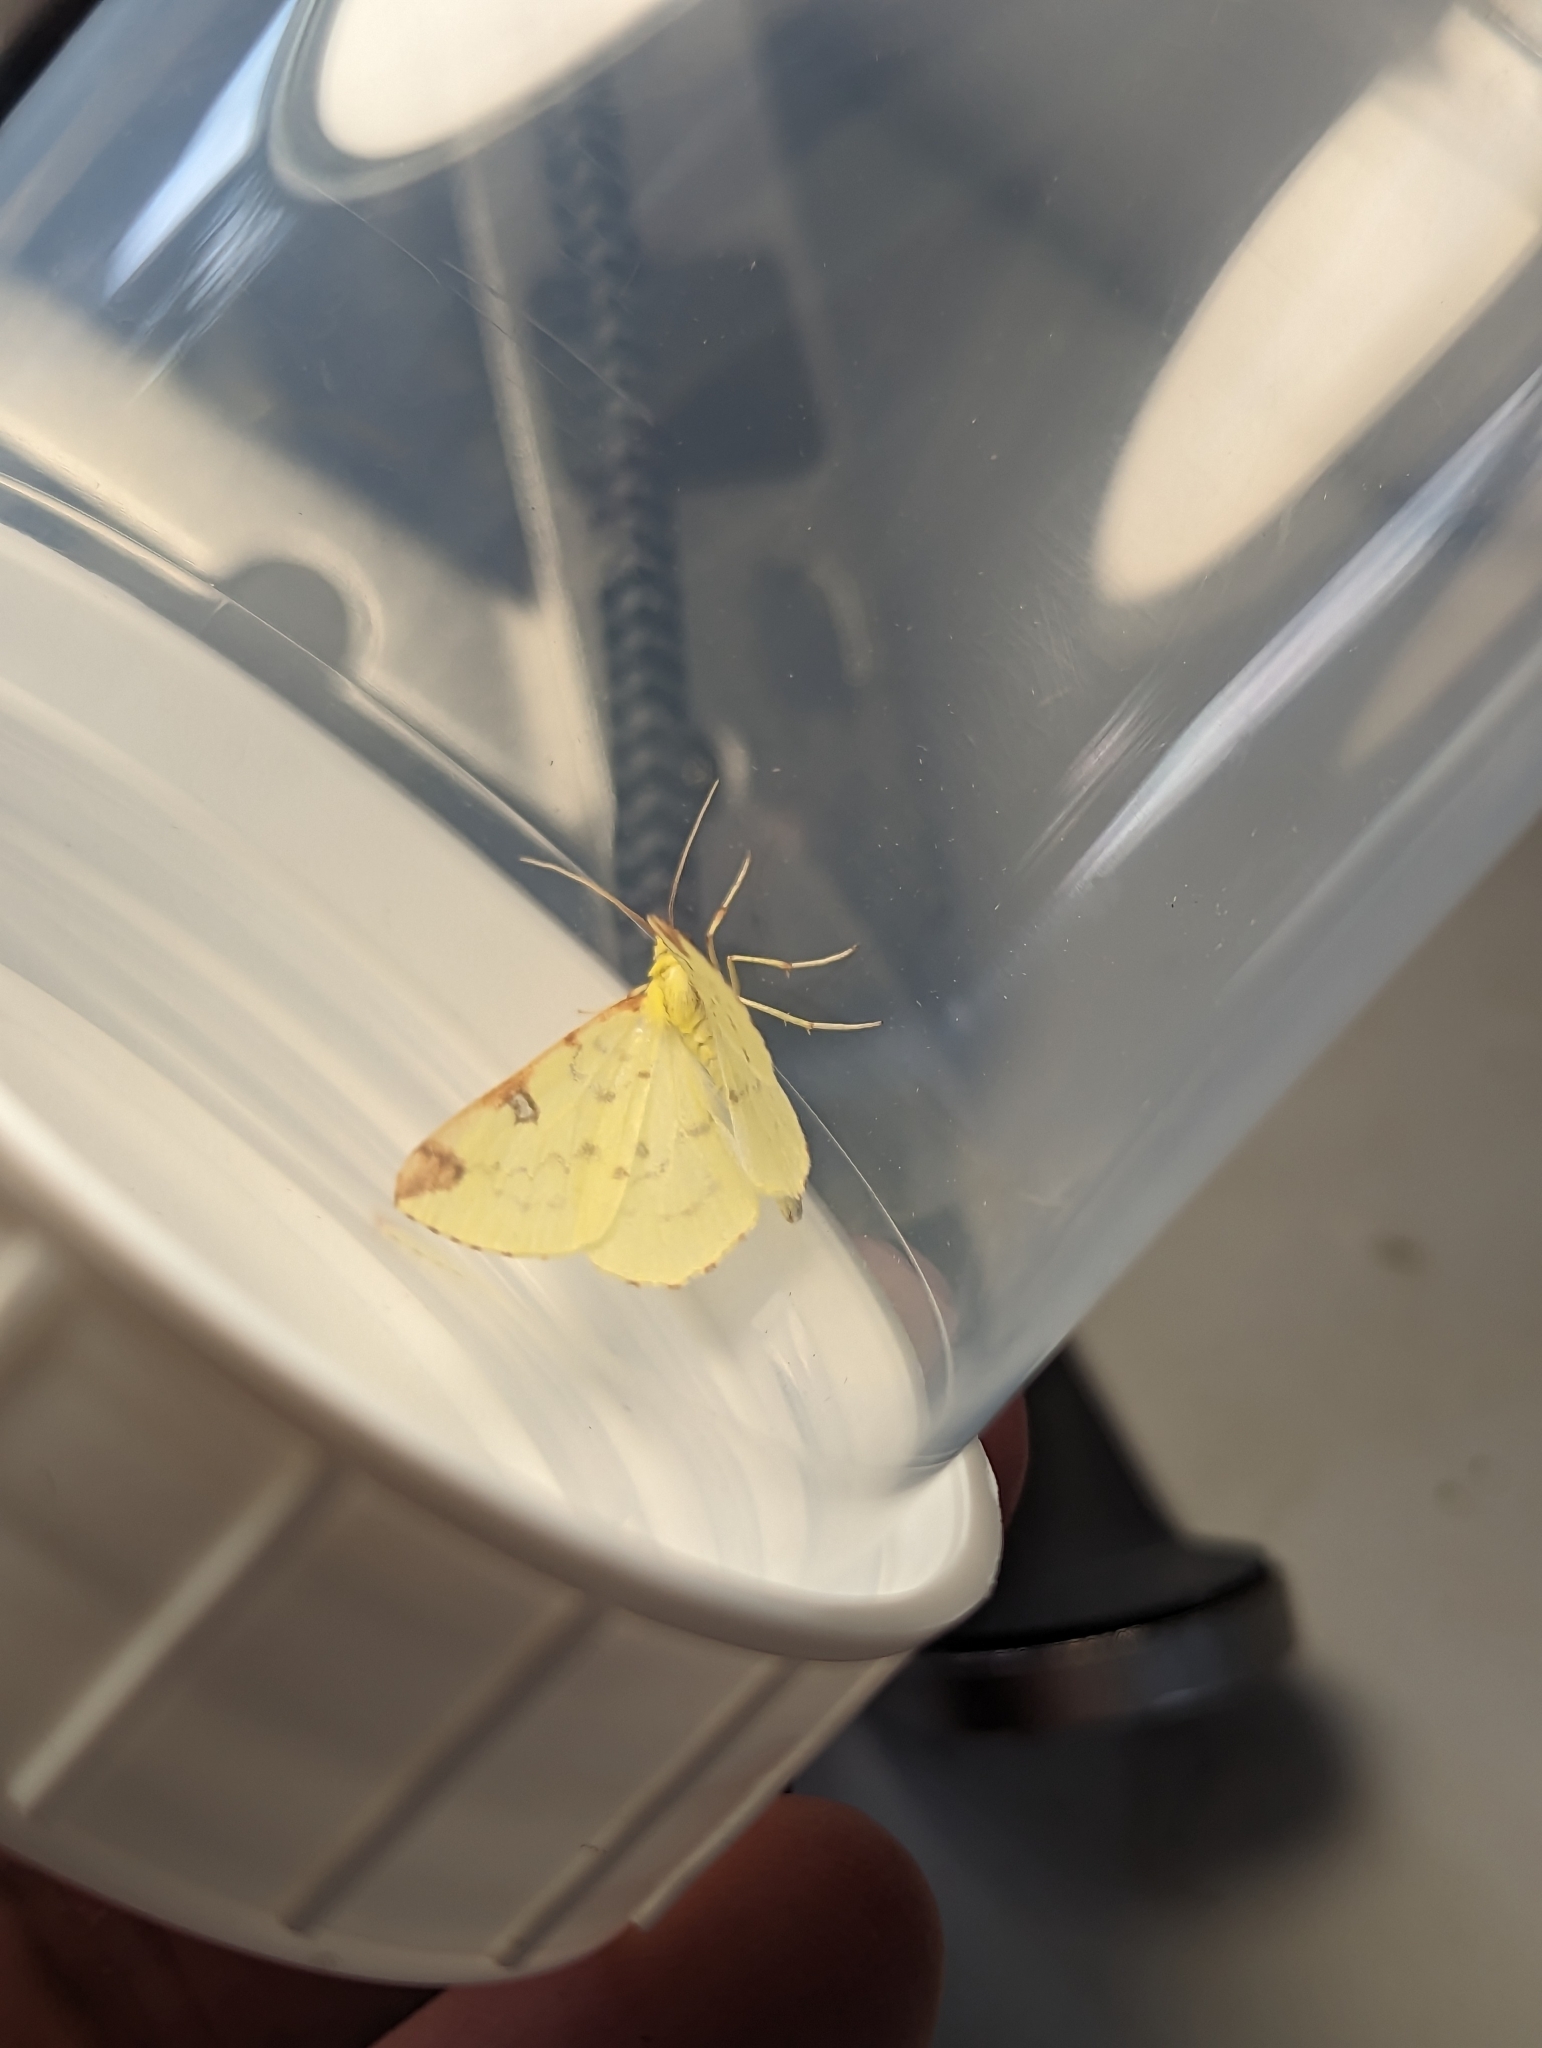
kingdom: Animalia
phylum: Arthropoda
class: Insecta
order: Lepidoptera
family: Geometridae
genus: Opisthograptis
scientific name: Opisthograptis luteolata
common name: Brimstone moth
